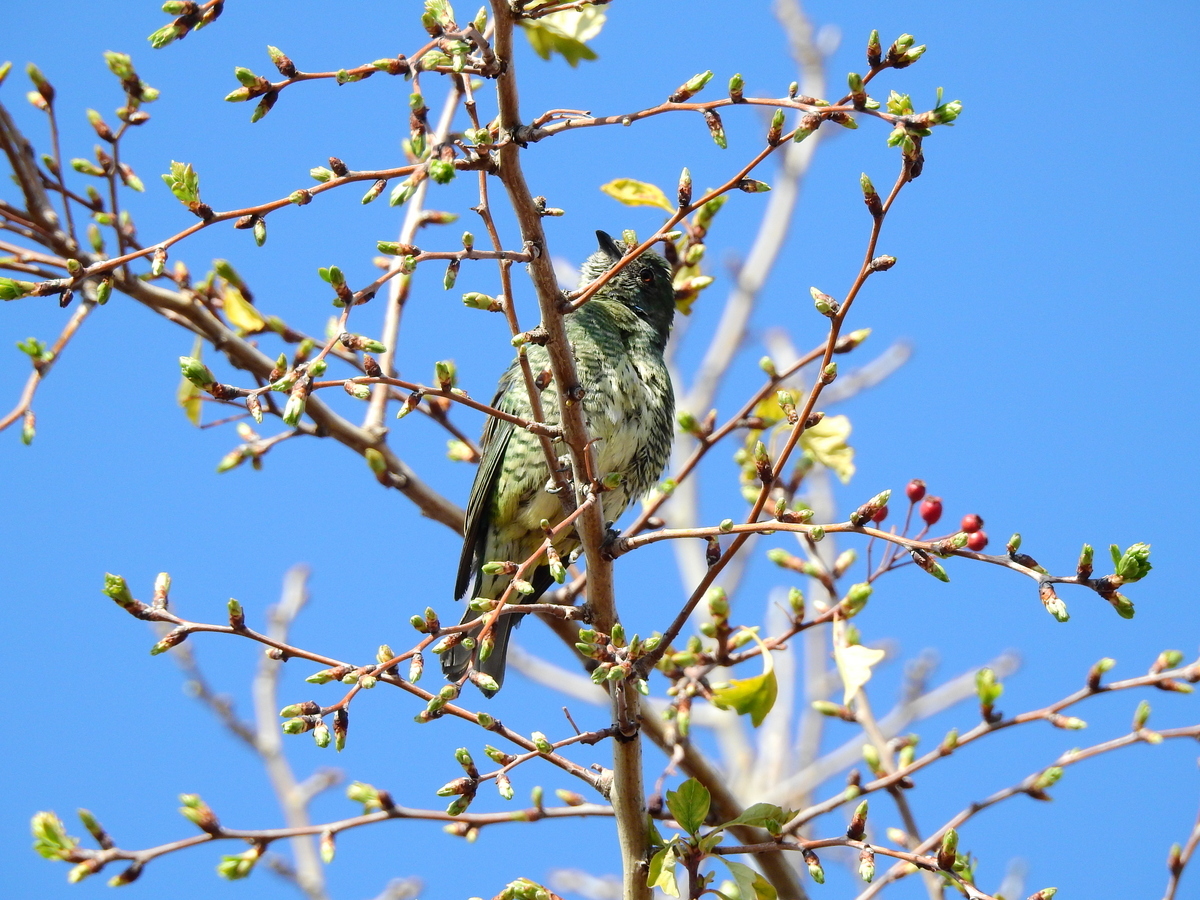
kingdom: Animalia
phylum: Chordata
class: Aves
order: Passeriformes
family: Thraupidae
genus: Tersina
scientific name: Tersina viridis
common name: Swallow tanager
